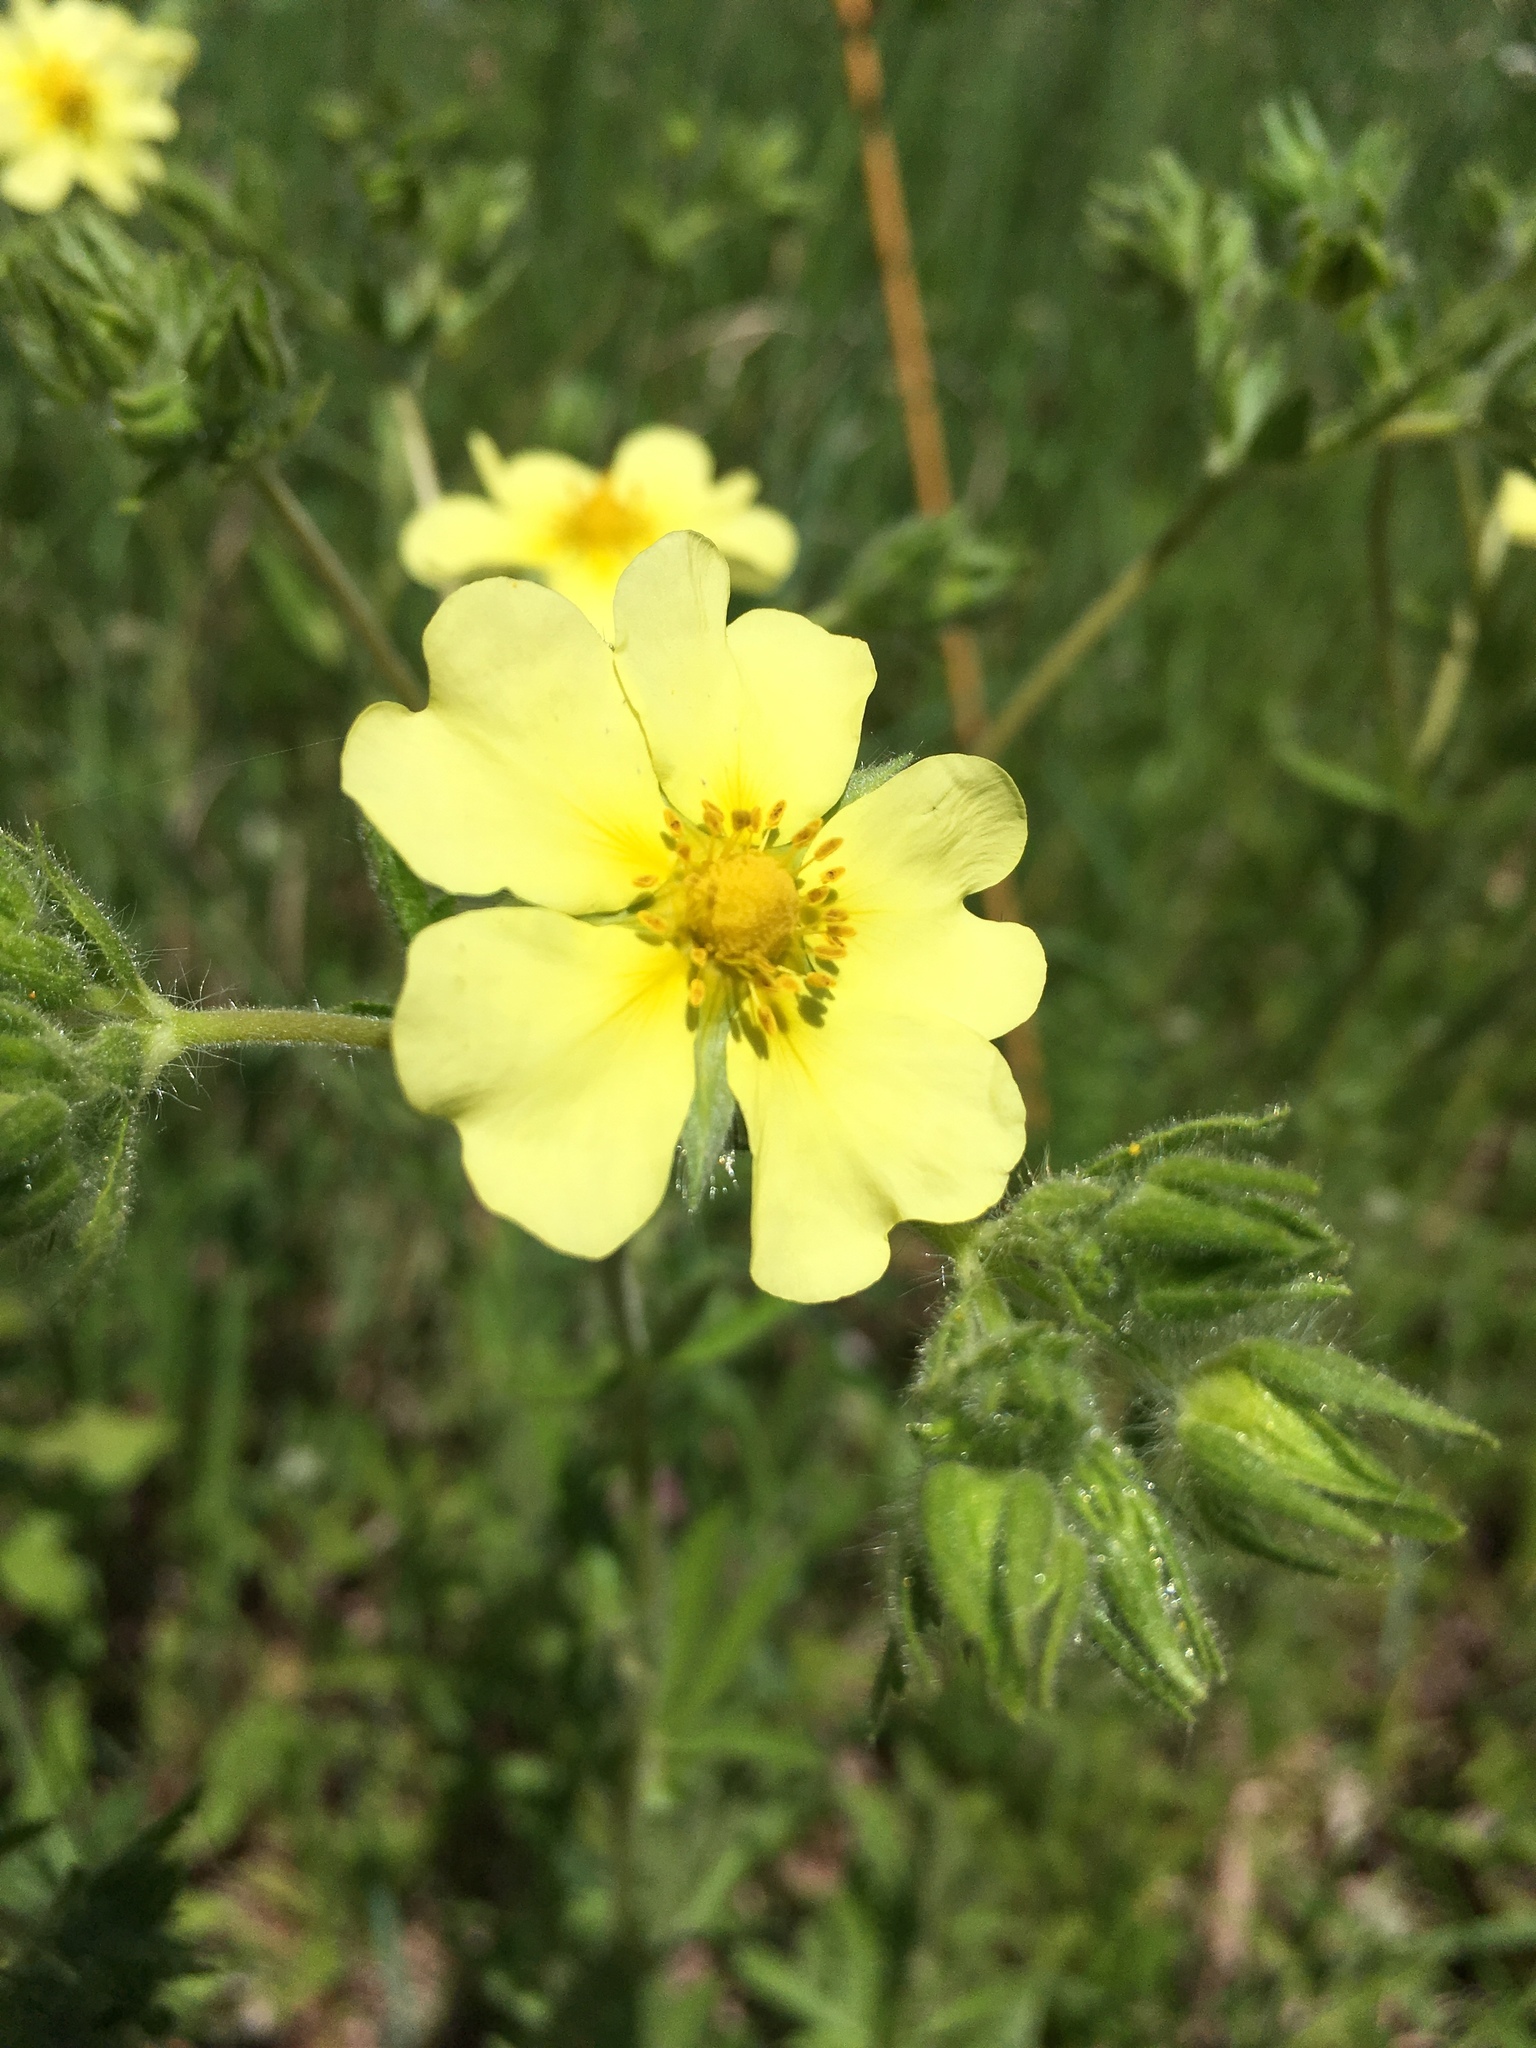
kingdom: Plantae
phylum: Tracheophyta
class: Magnoliopsida
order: Rosales
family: Rosaceae
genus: Potentilla
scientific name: Potentilla recta
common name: Sulphur cinquefoil
